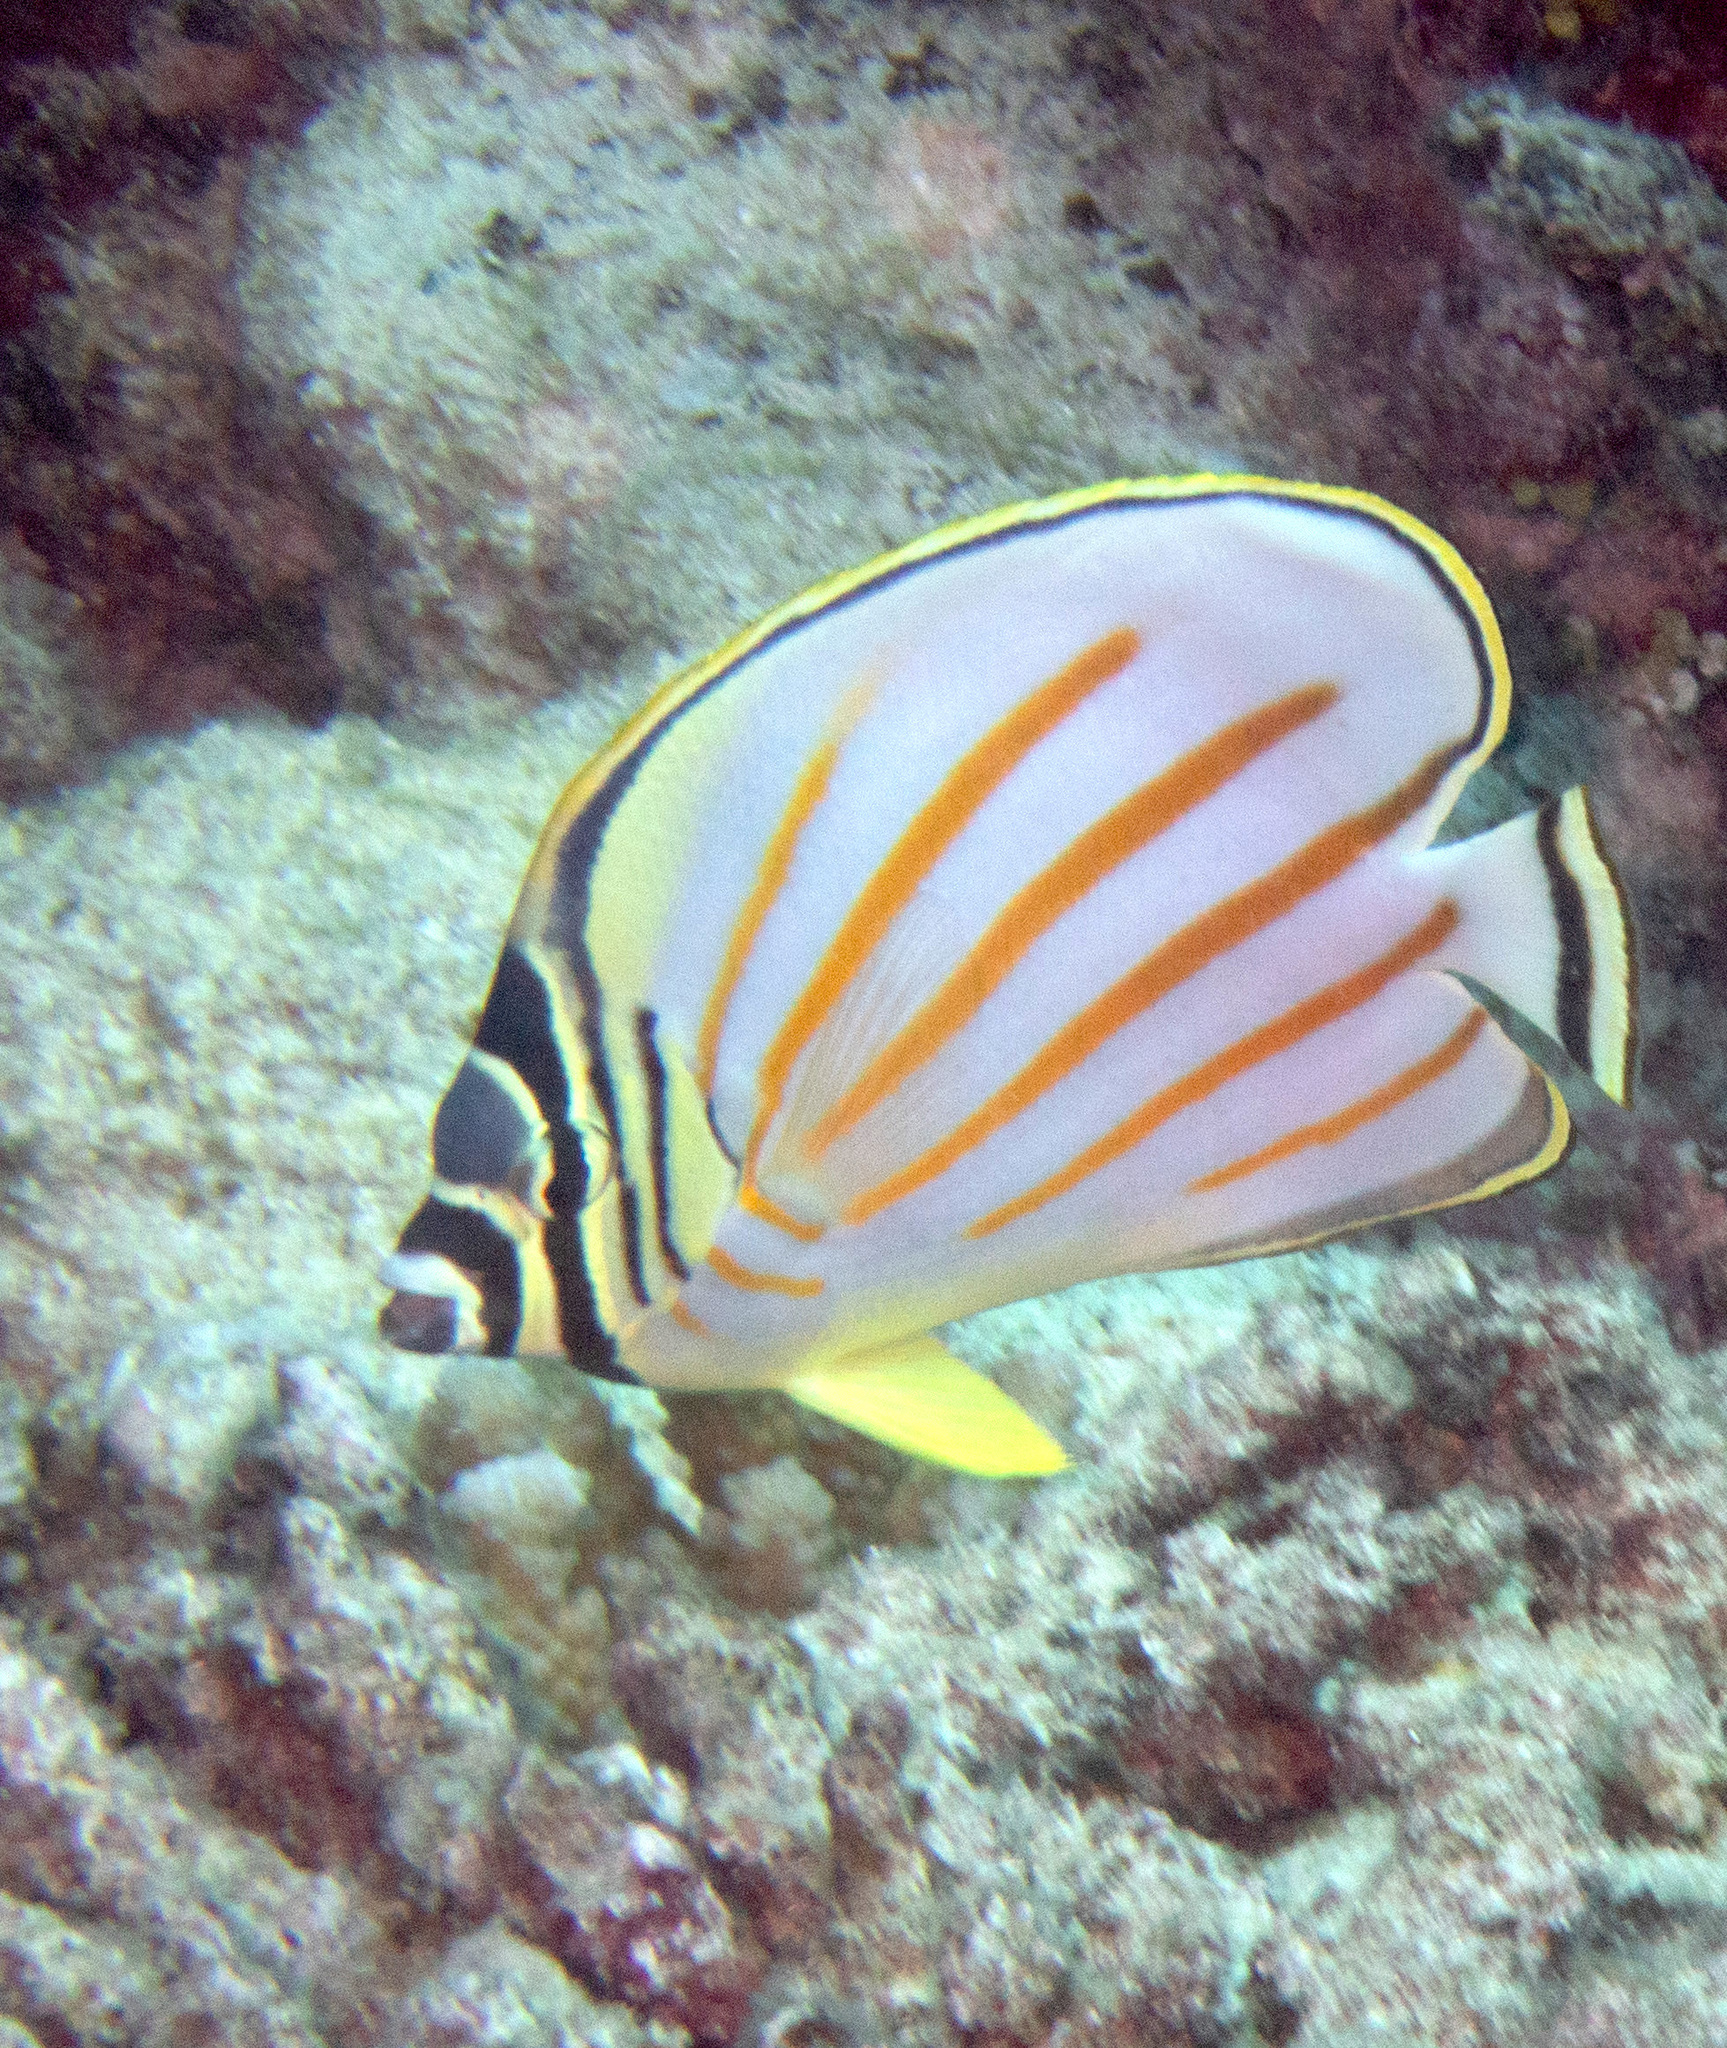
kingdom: Animalia
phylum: Chordata
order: Perciformes
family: Chaetodontidae
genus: Chaetodon
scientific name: Chaetodon ornatissimus
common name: Ornate butterflyfish
